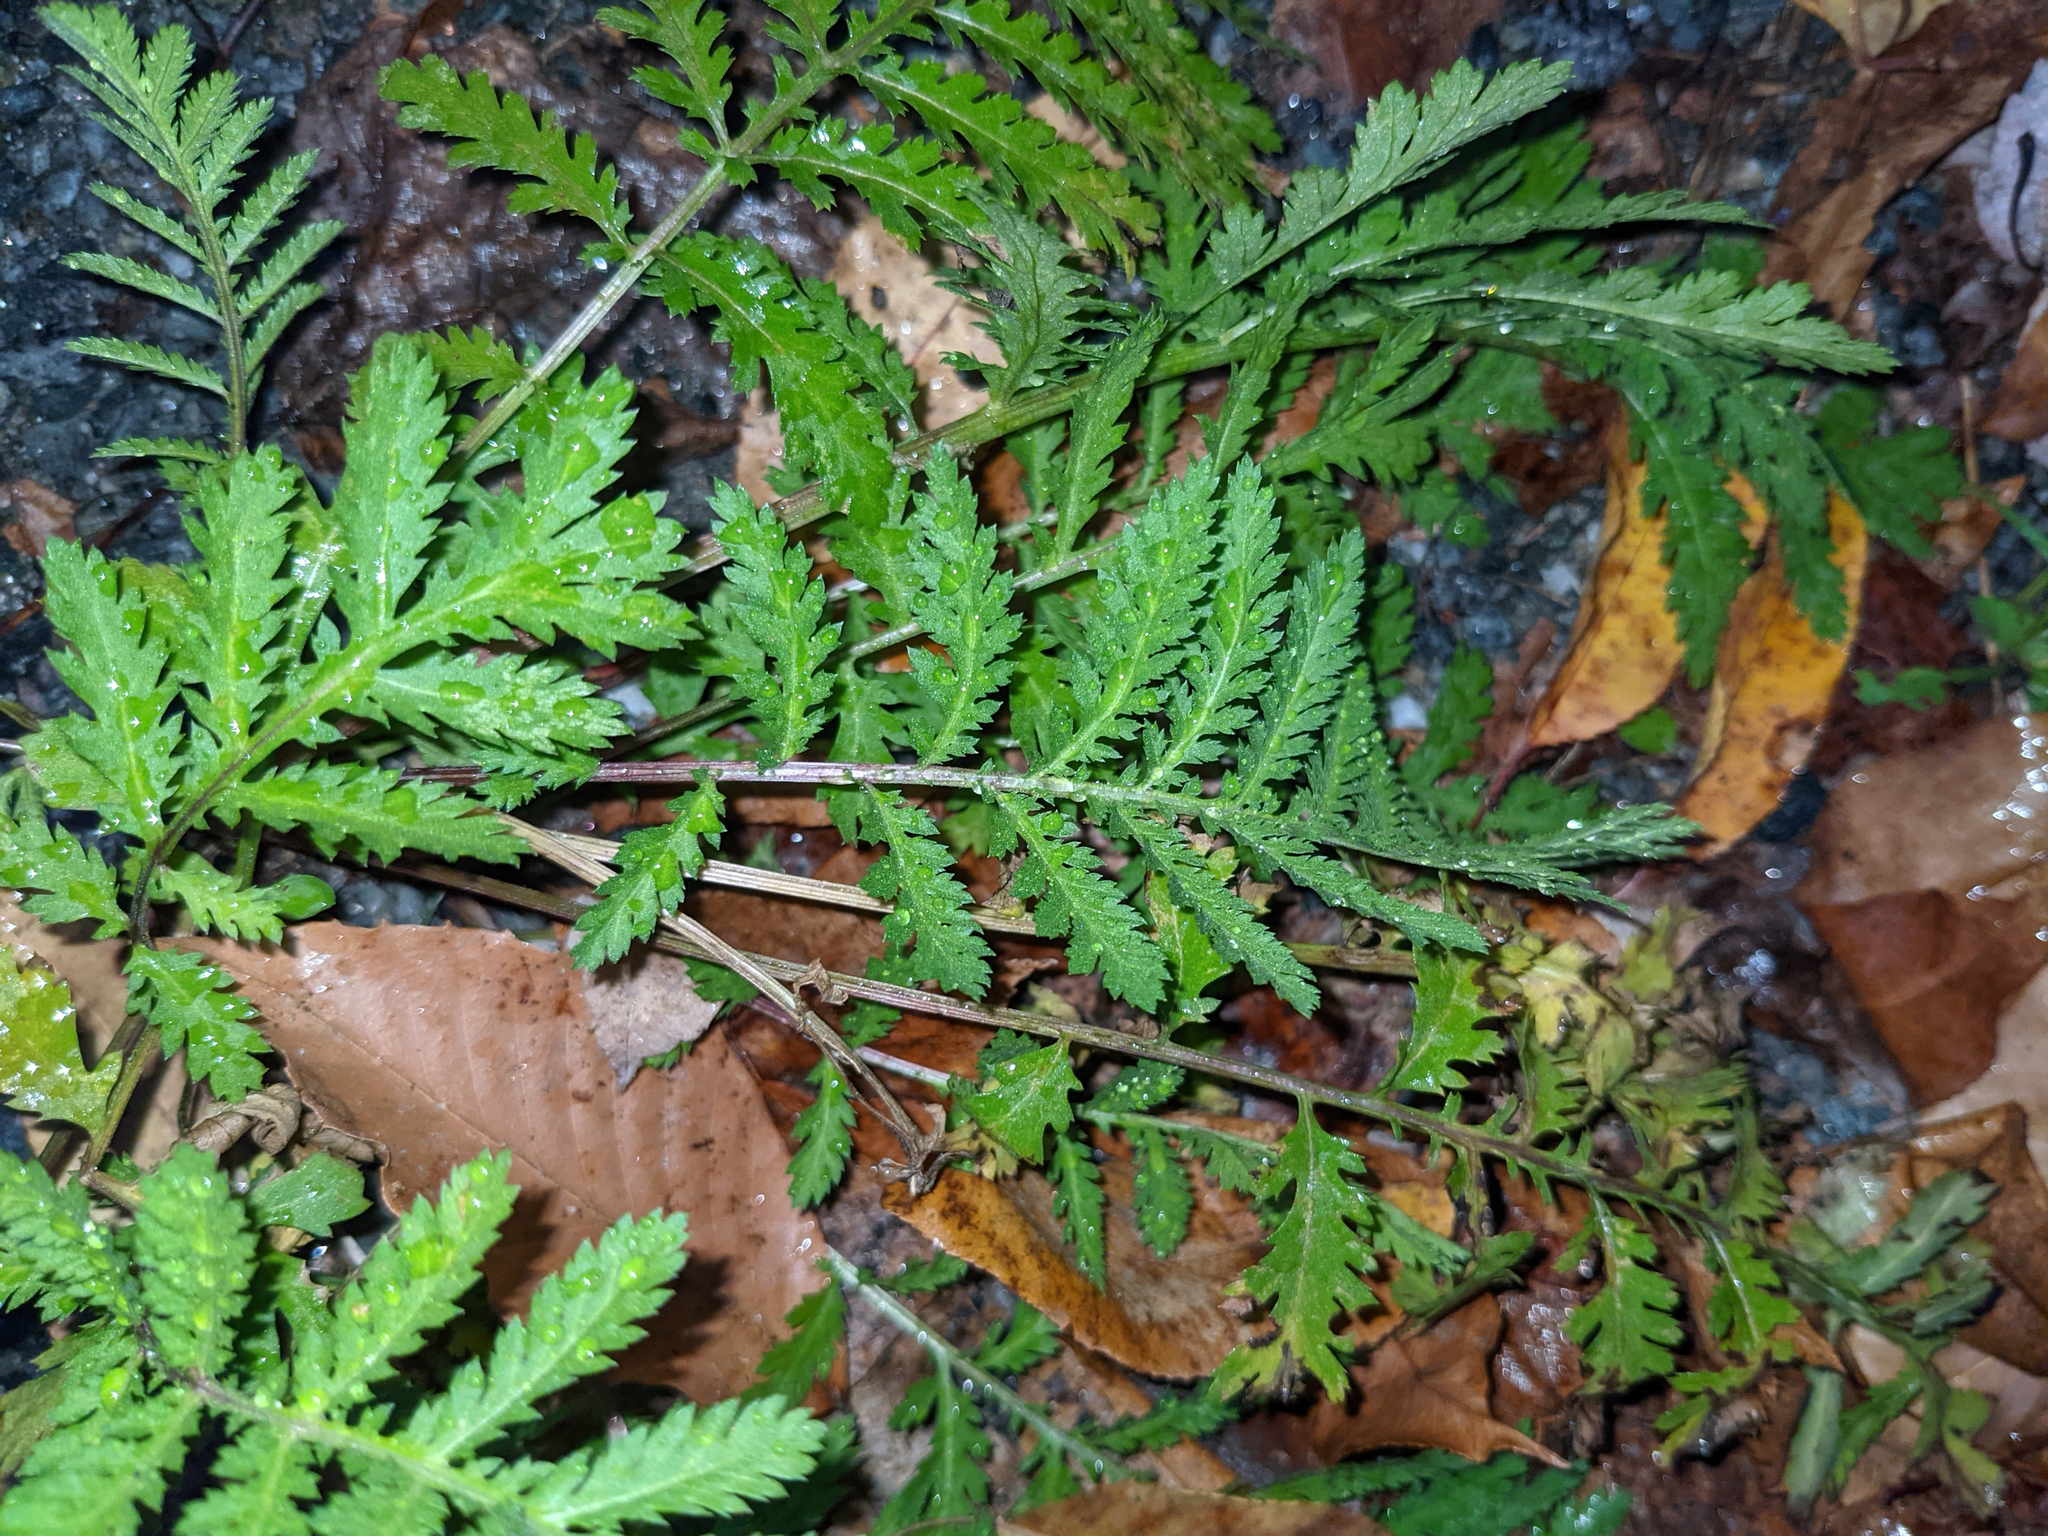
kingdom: Plantae
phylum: Tracheophyta
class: Magnoliopsida
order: Asterales
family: Asteraceae
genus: Tanacetum
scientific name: Tanacetum vulgare
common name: Common tansy
